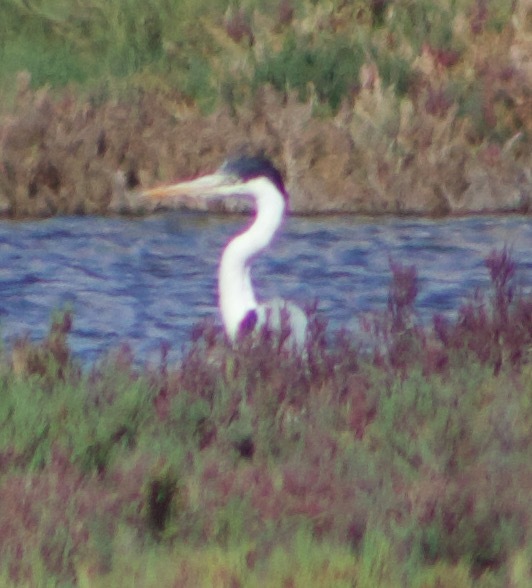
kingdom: Animalia
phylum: Chordata
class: Aves
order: Pelecaniformes
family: Ardeidae
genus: Ardea
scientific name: Ardea cocoi
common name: Cocoi heron
